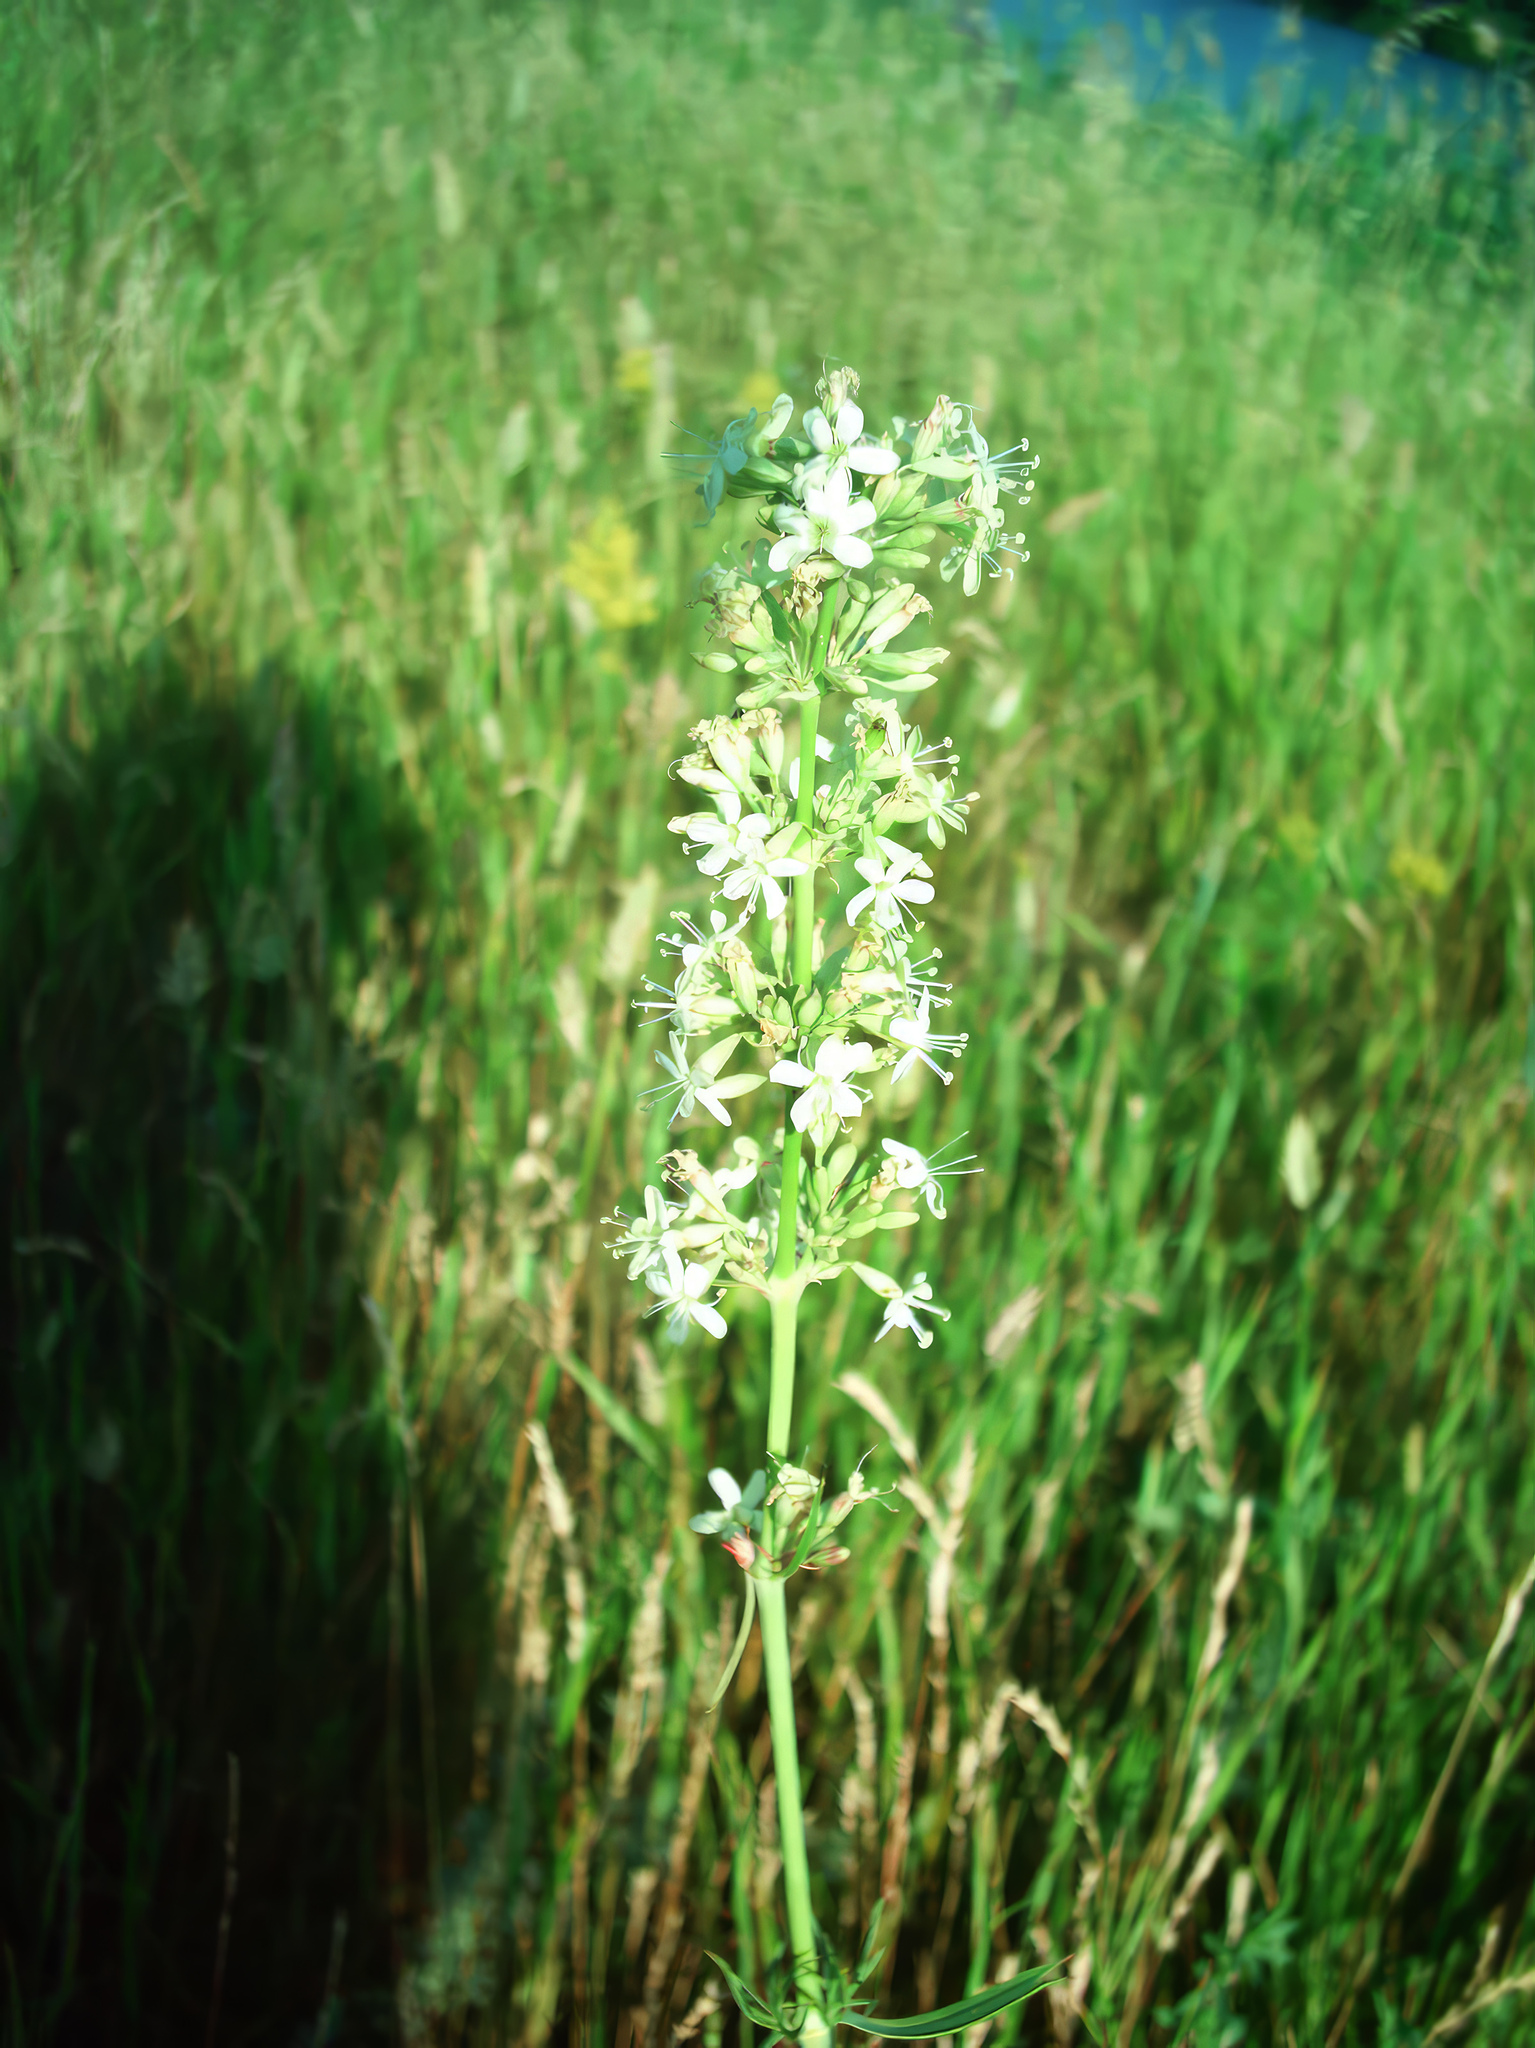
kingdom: Plantae
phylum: Tracheophyta
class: Magnoliopsida
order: Caryophyllales
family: Caryophyllaceae
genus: Silene
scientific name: Silene sibirica
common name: Siberian catchfly
